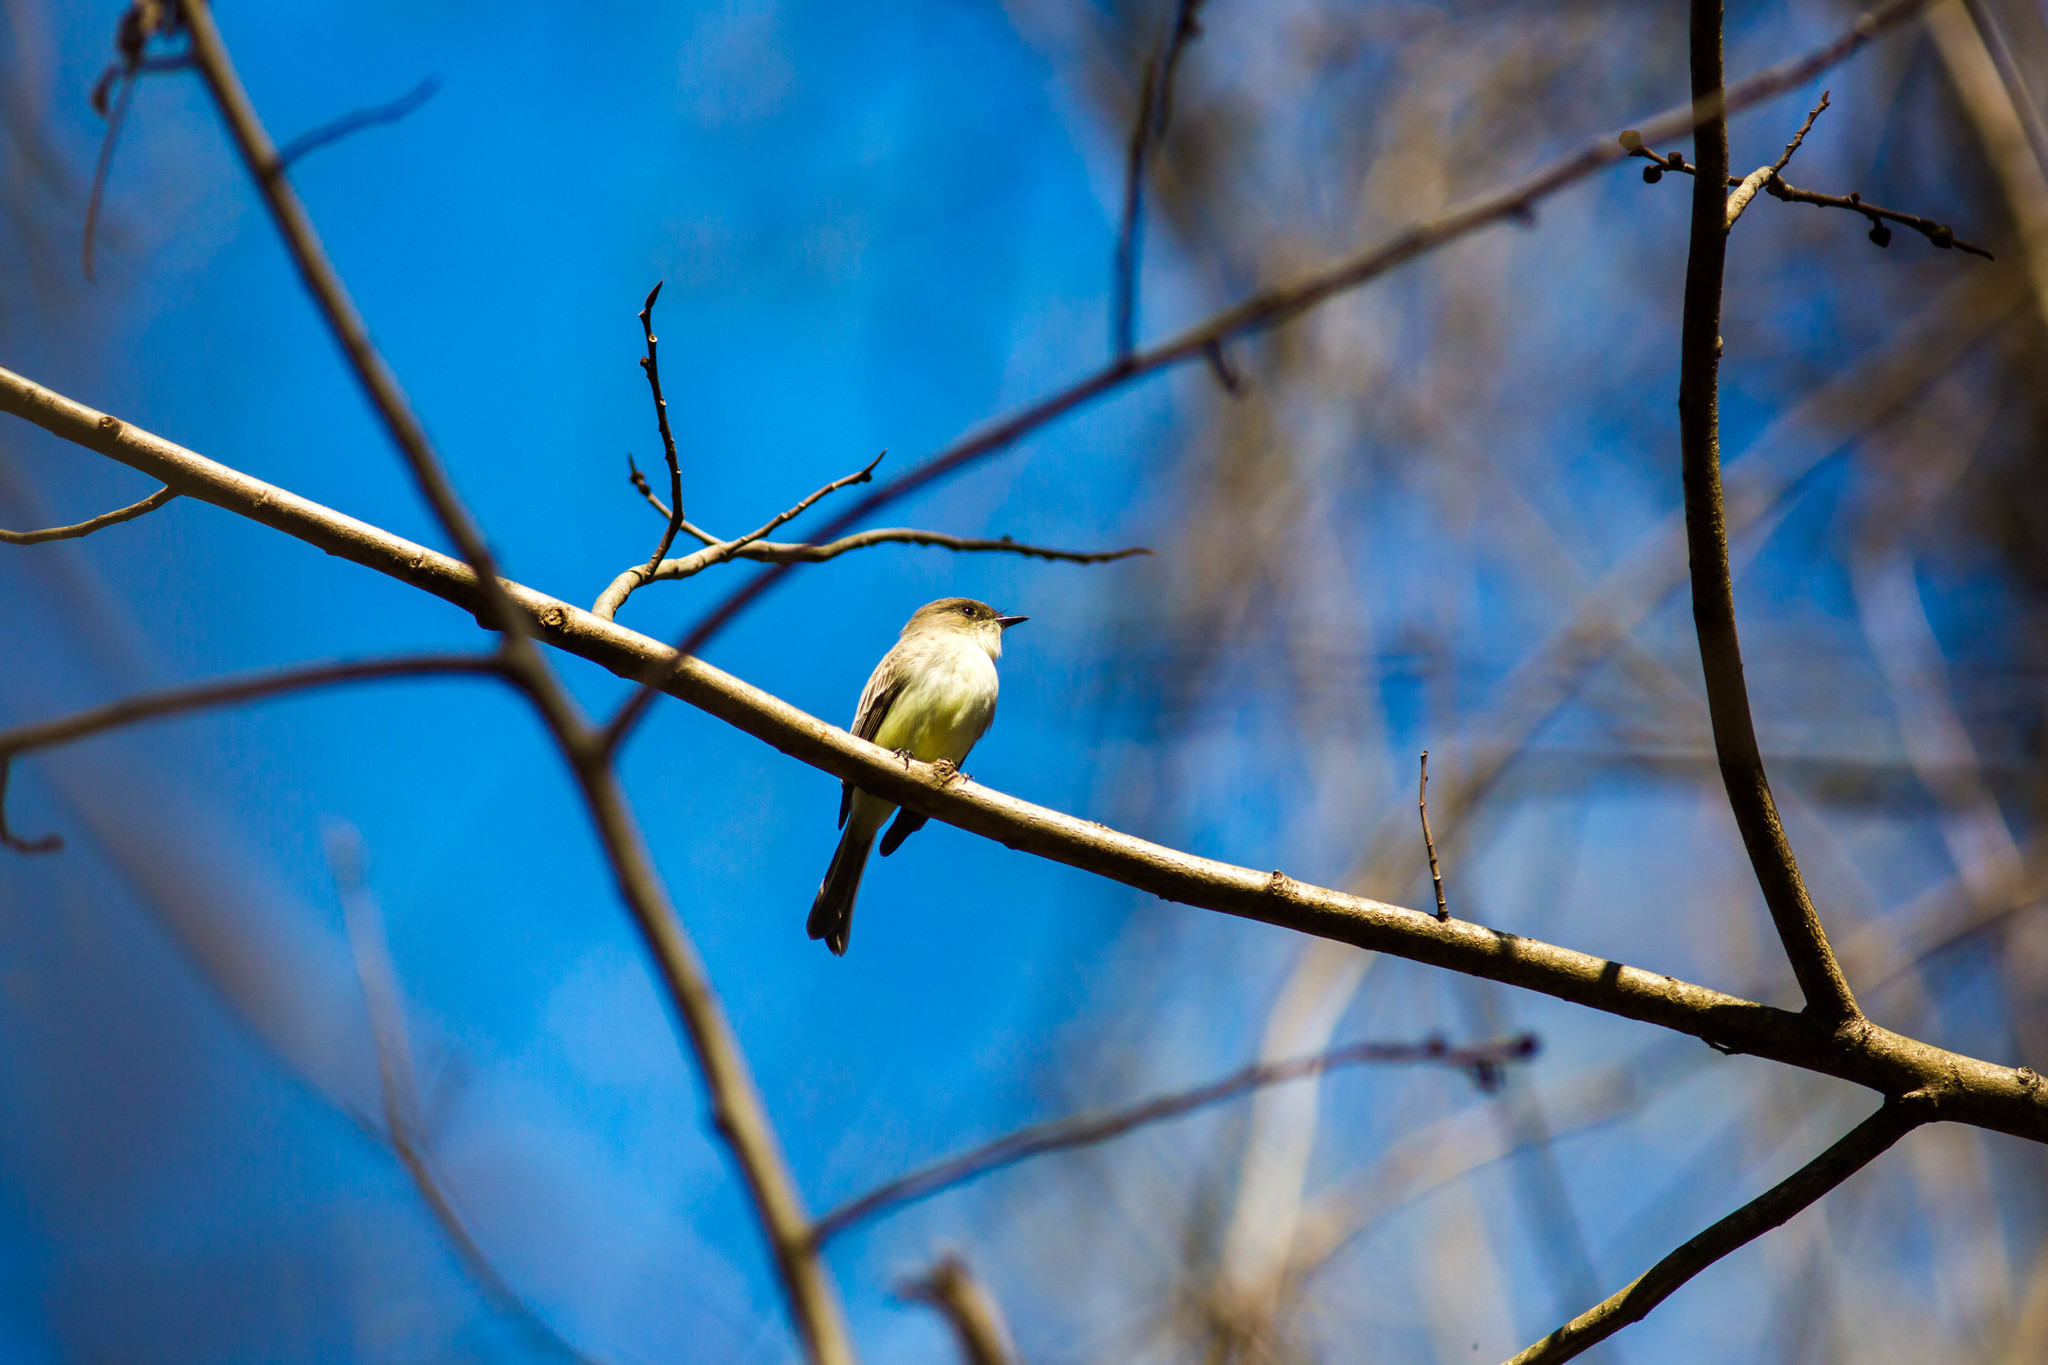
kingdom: Animalia
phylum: Chordata
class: Aves
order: Passeriformes
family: Tyrannidae
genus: Sayornis
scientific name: Sayornis phoebe
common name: Eastern phoebe
